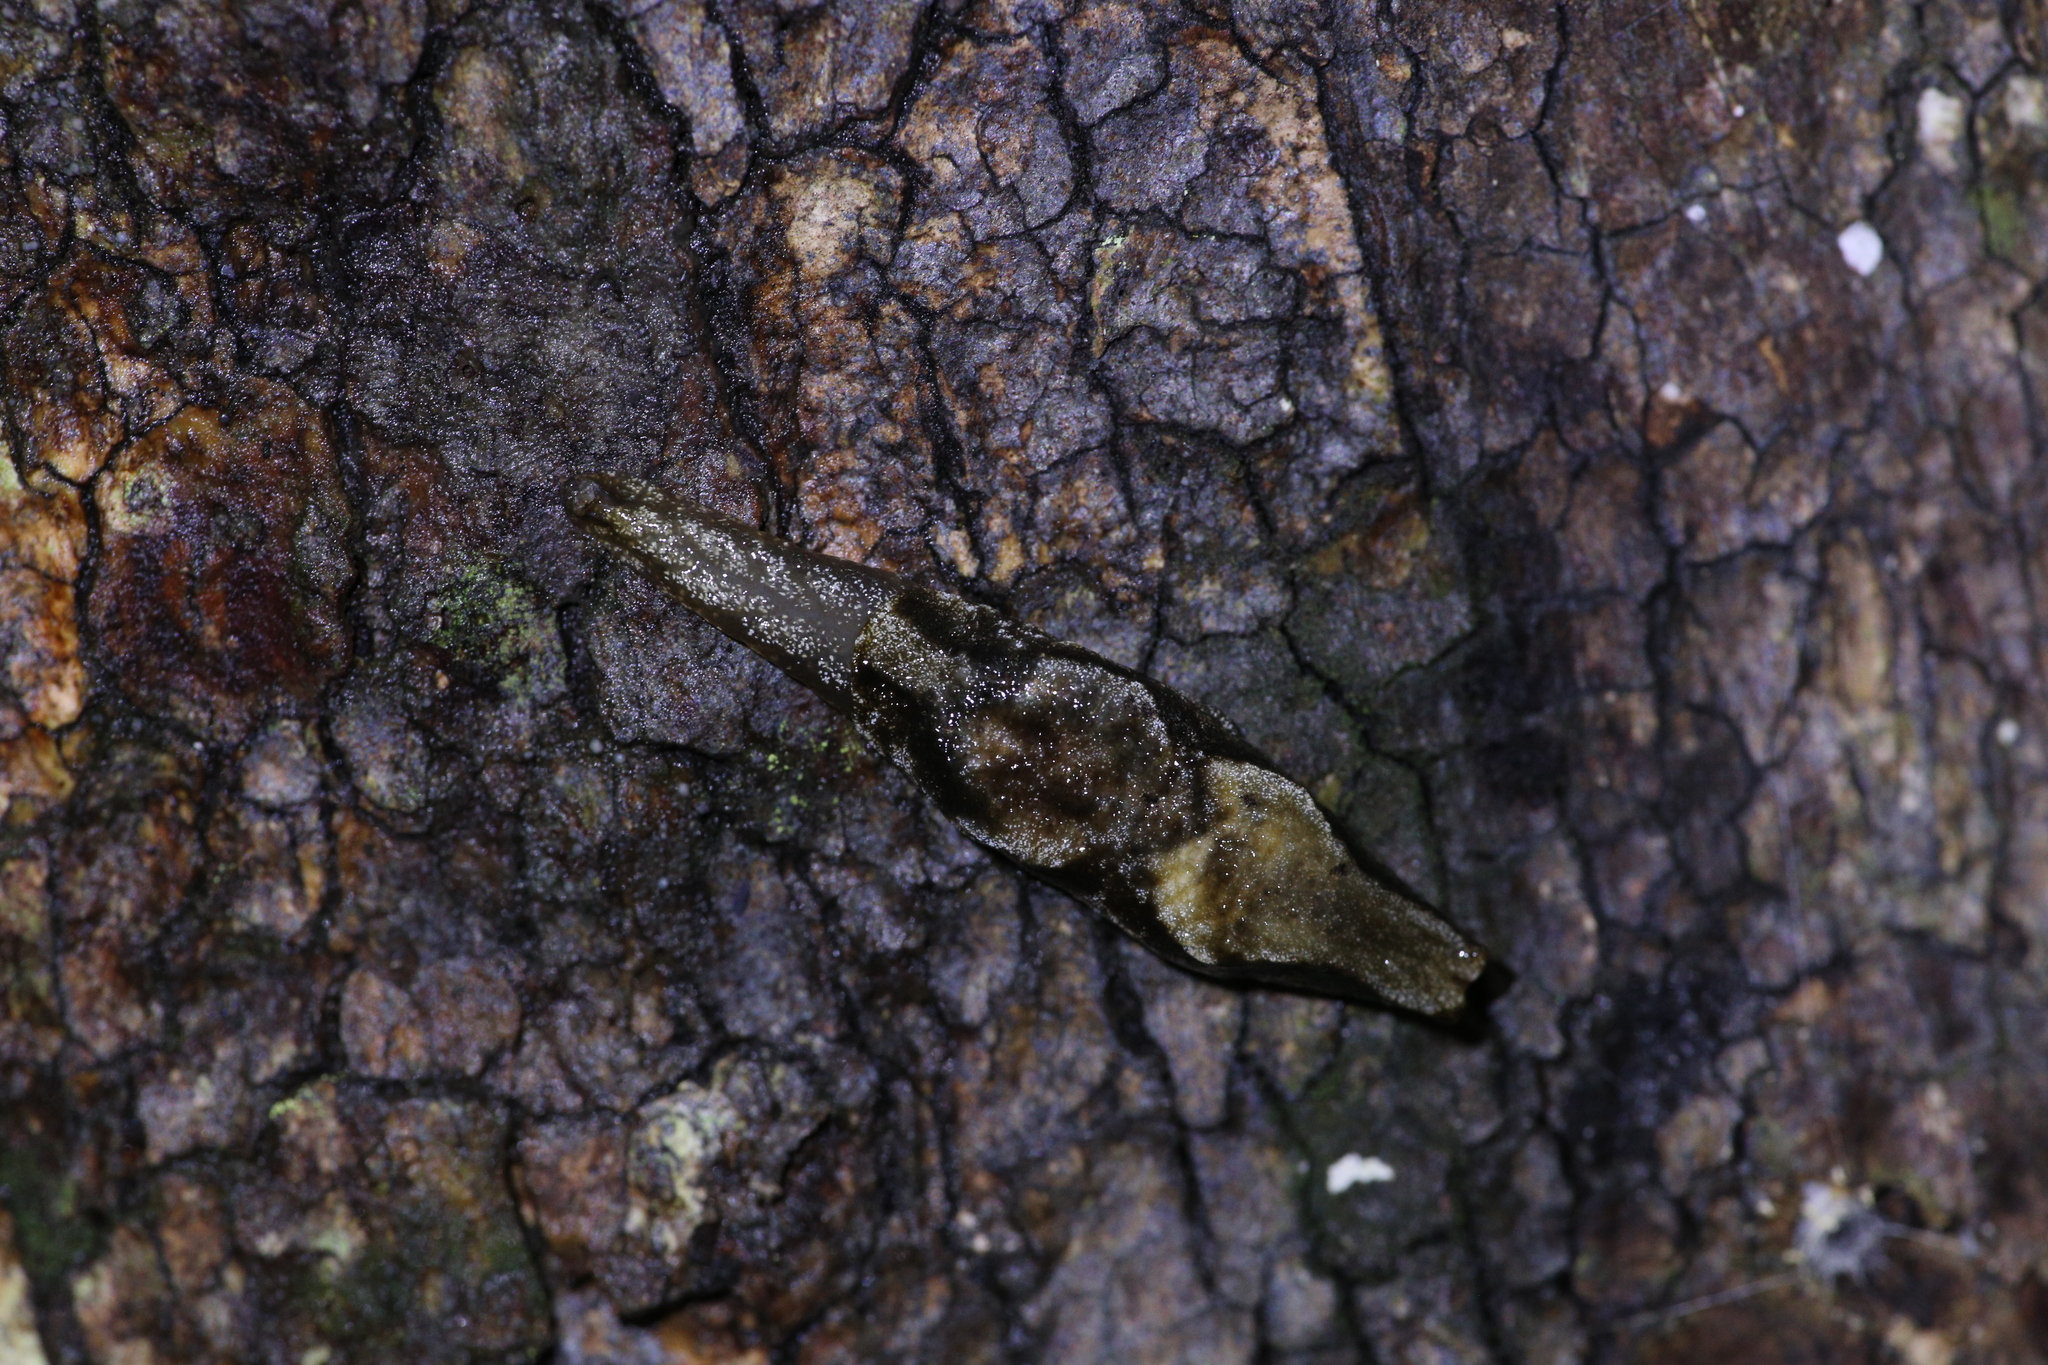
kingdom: Animalia
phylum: Mollusca
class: Gastropoda
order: Stylommatophora
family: Cystopeltidae
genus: Cystopelta
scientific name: Cystopelta purpurea
